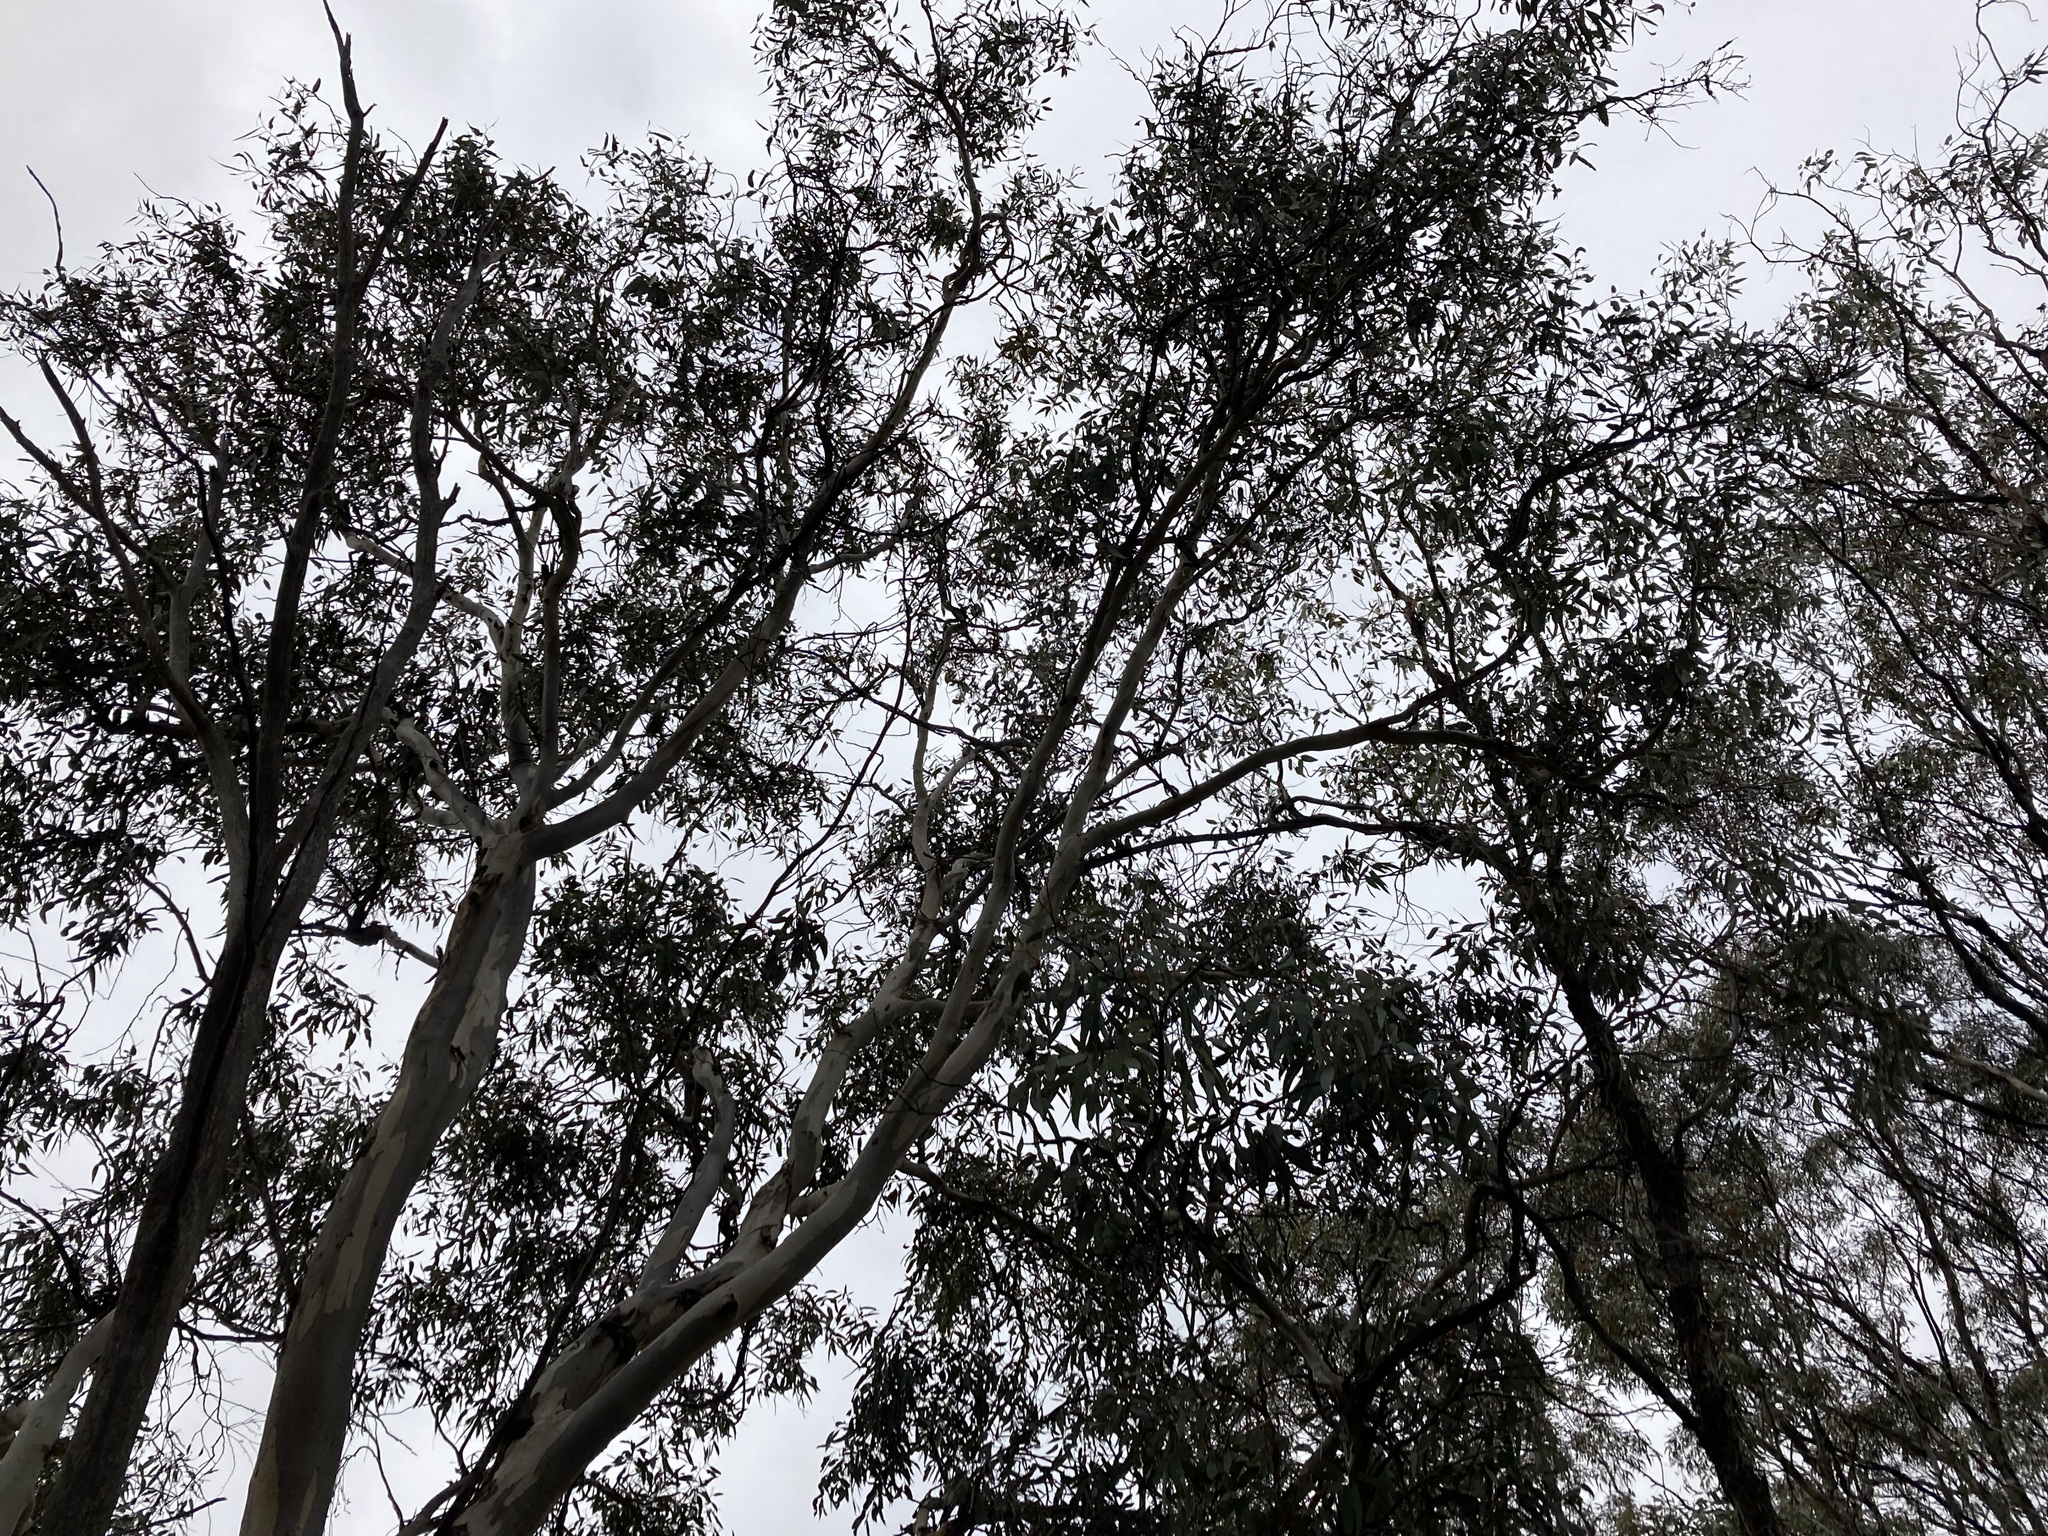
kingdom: Plantae
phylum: Tracheophyta
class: Magnoliopsida
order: Myrtales
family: Myrtaceae
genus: Eucalyptus
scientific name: Eucalyptus wandoo
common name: White gum
